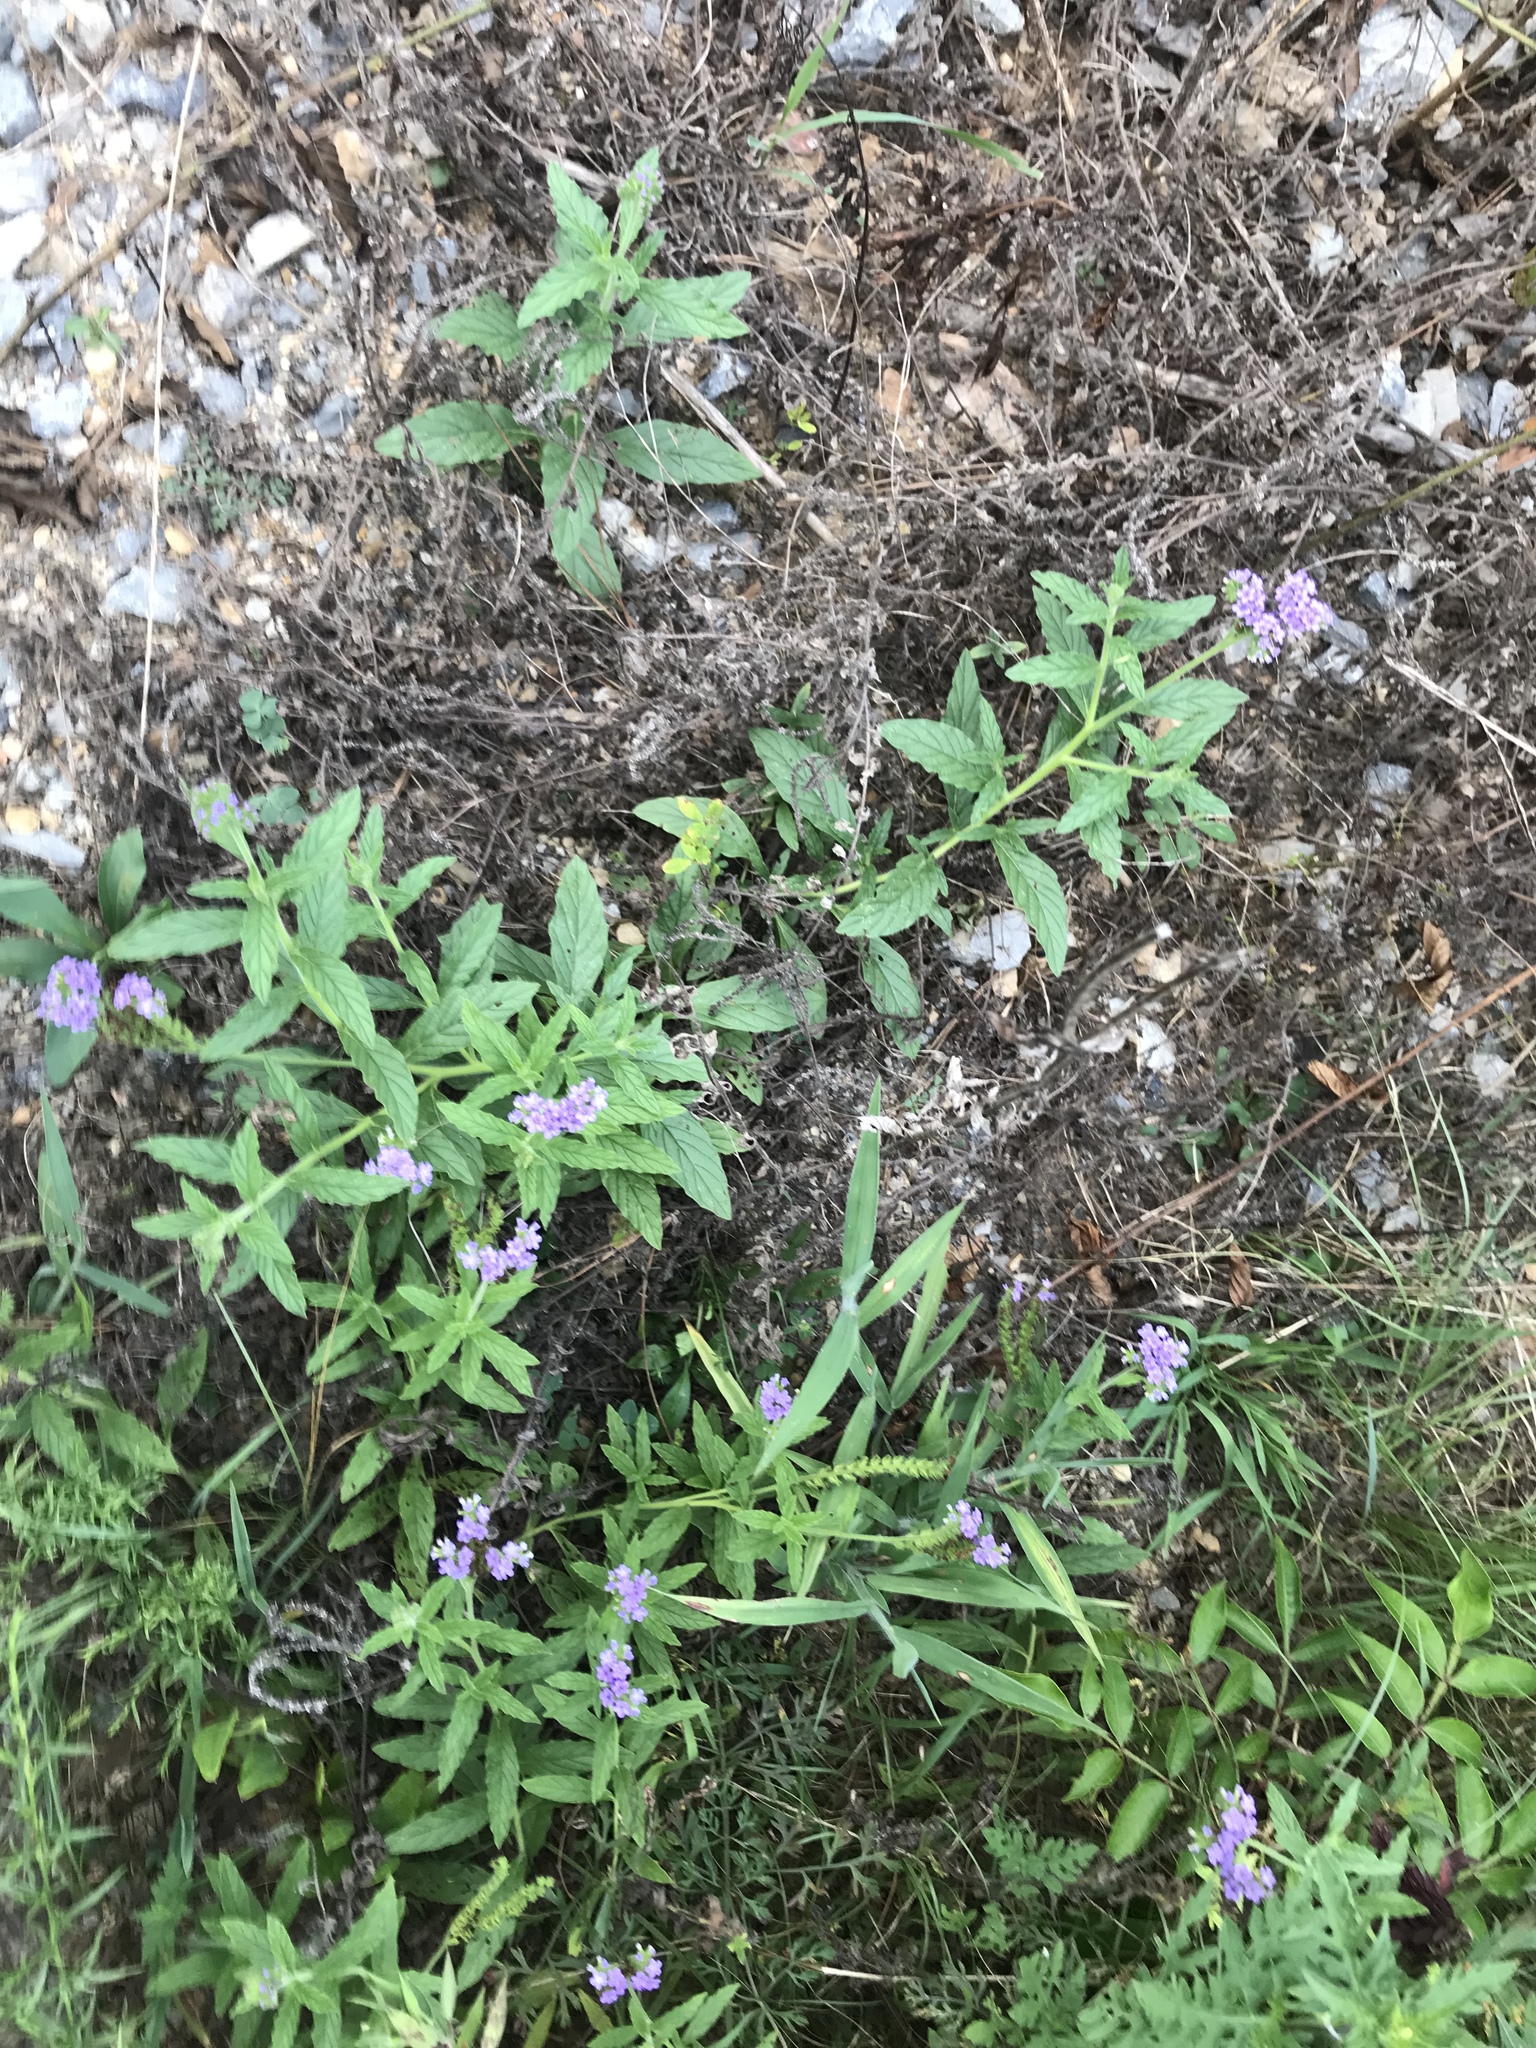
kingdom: Plantae
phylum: Tracheophyta
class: Magnoliopsida
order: Boraginales
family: Heliotropiaceae
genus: Heliotropium
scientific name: Heliotropium amplexicaule
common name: Clasping heliotrope
